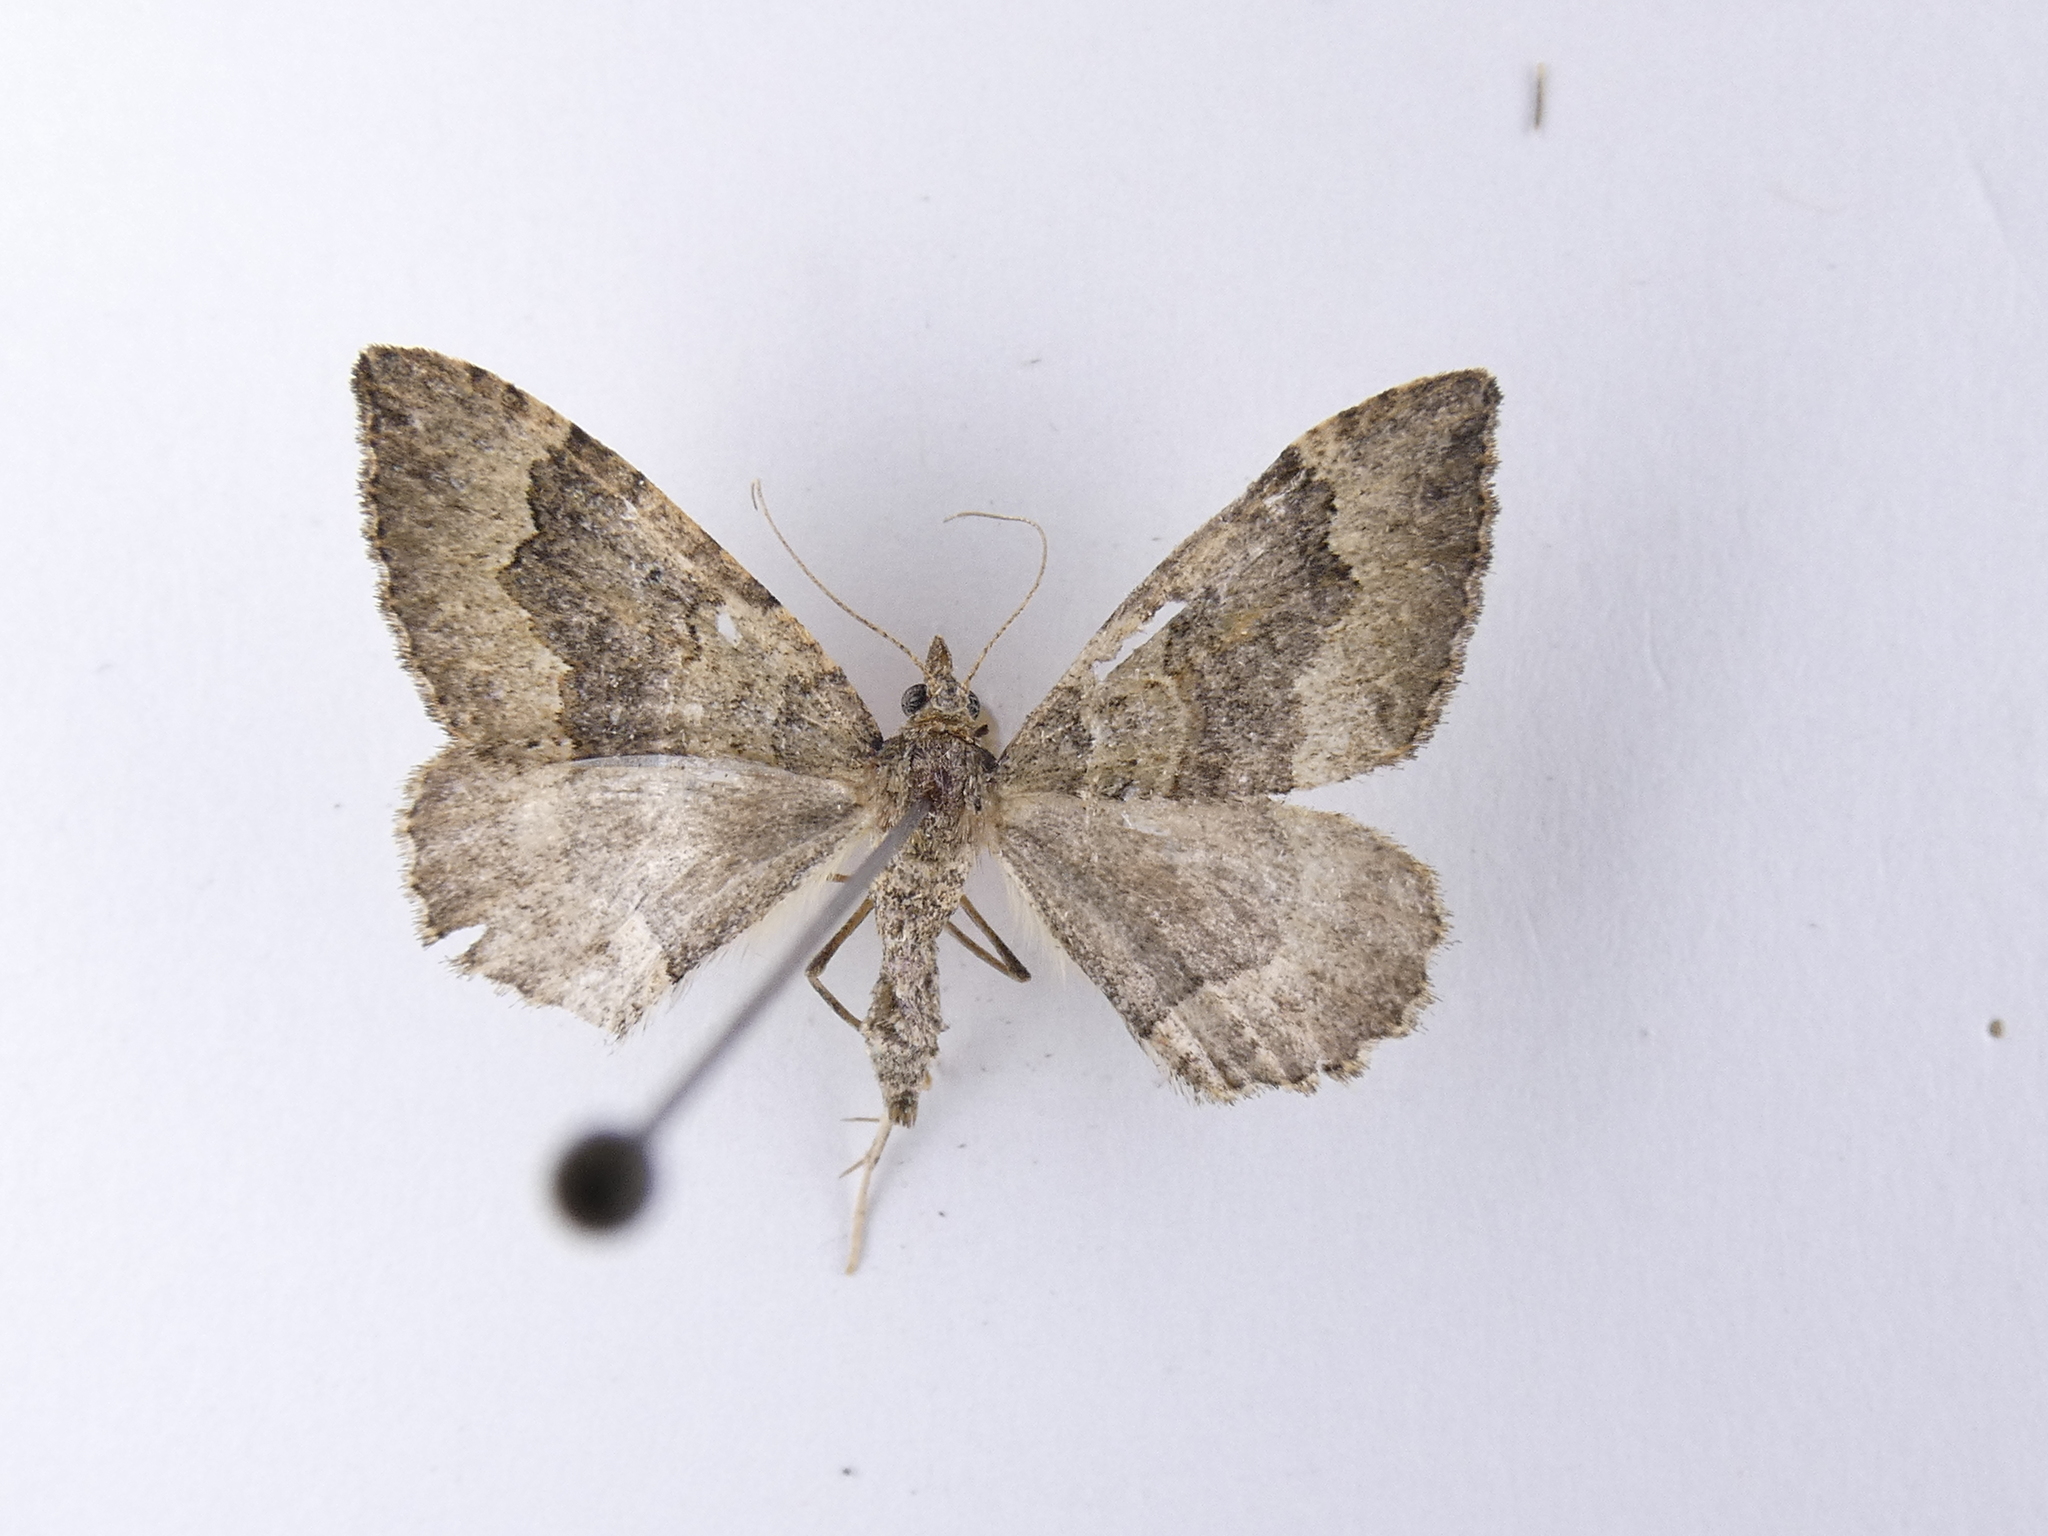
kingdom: Animalia
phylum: Arthropoda
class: Insecta
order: Lepidoptera
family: Geometridae
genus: Epyaxa
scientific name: Epyaxa rosearia
